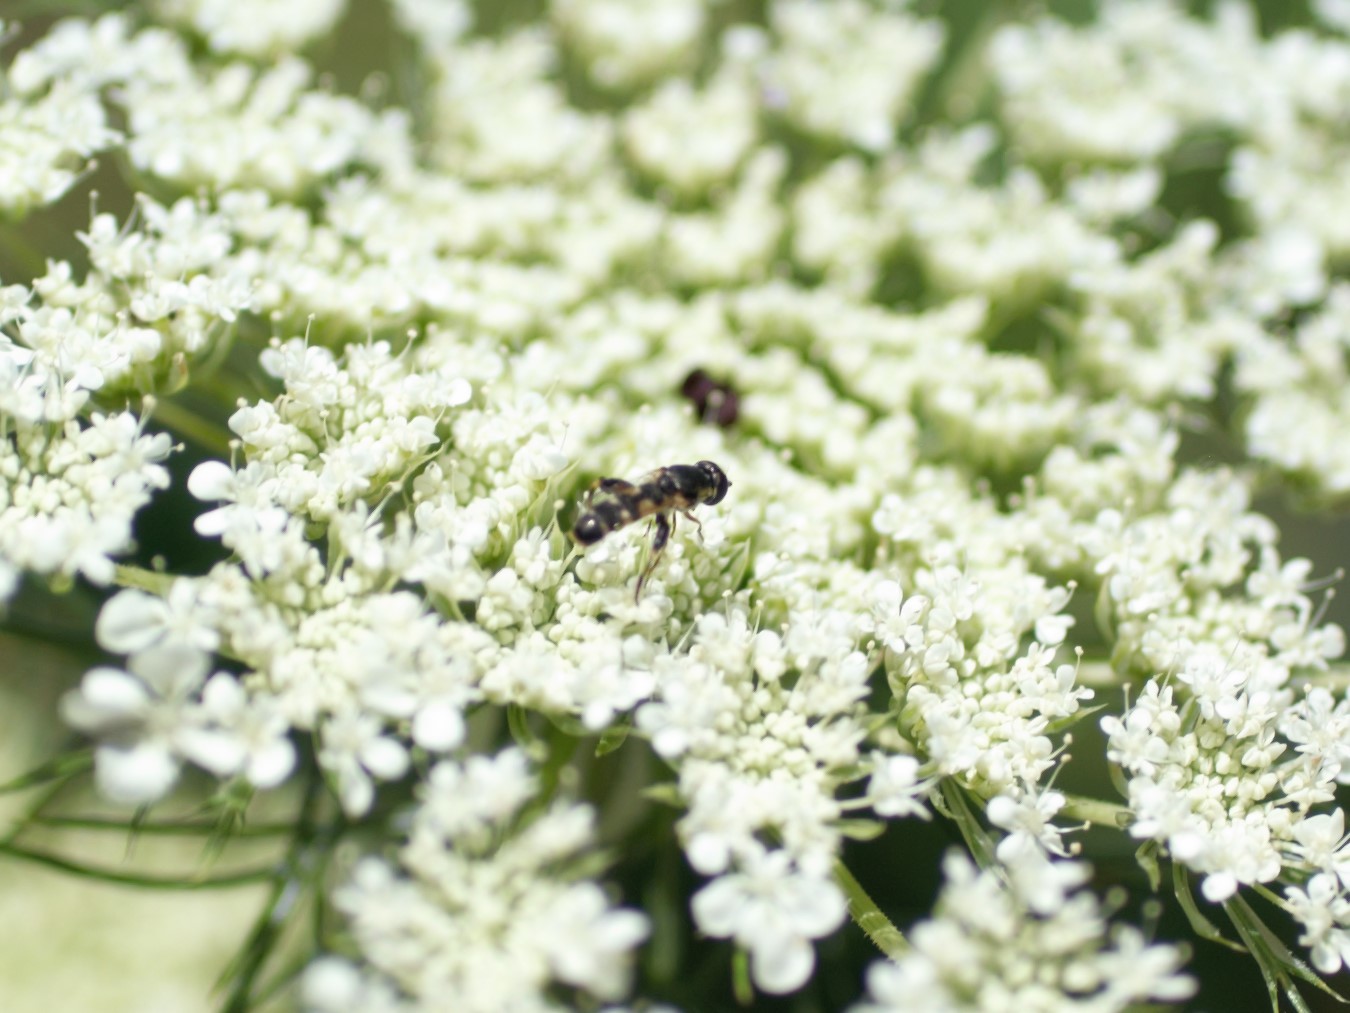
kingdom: Animalia
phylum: Arthropoda
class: Insecta
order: Diptera
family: Syrphidae
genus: Syritta
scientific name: Syritta pipiens
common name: Hover fly
